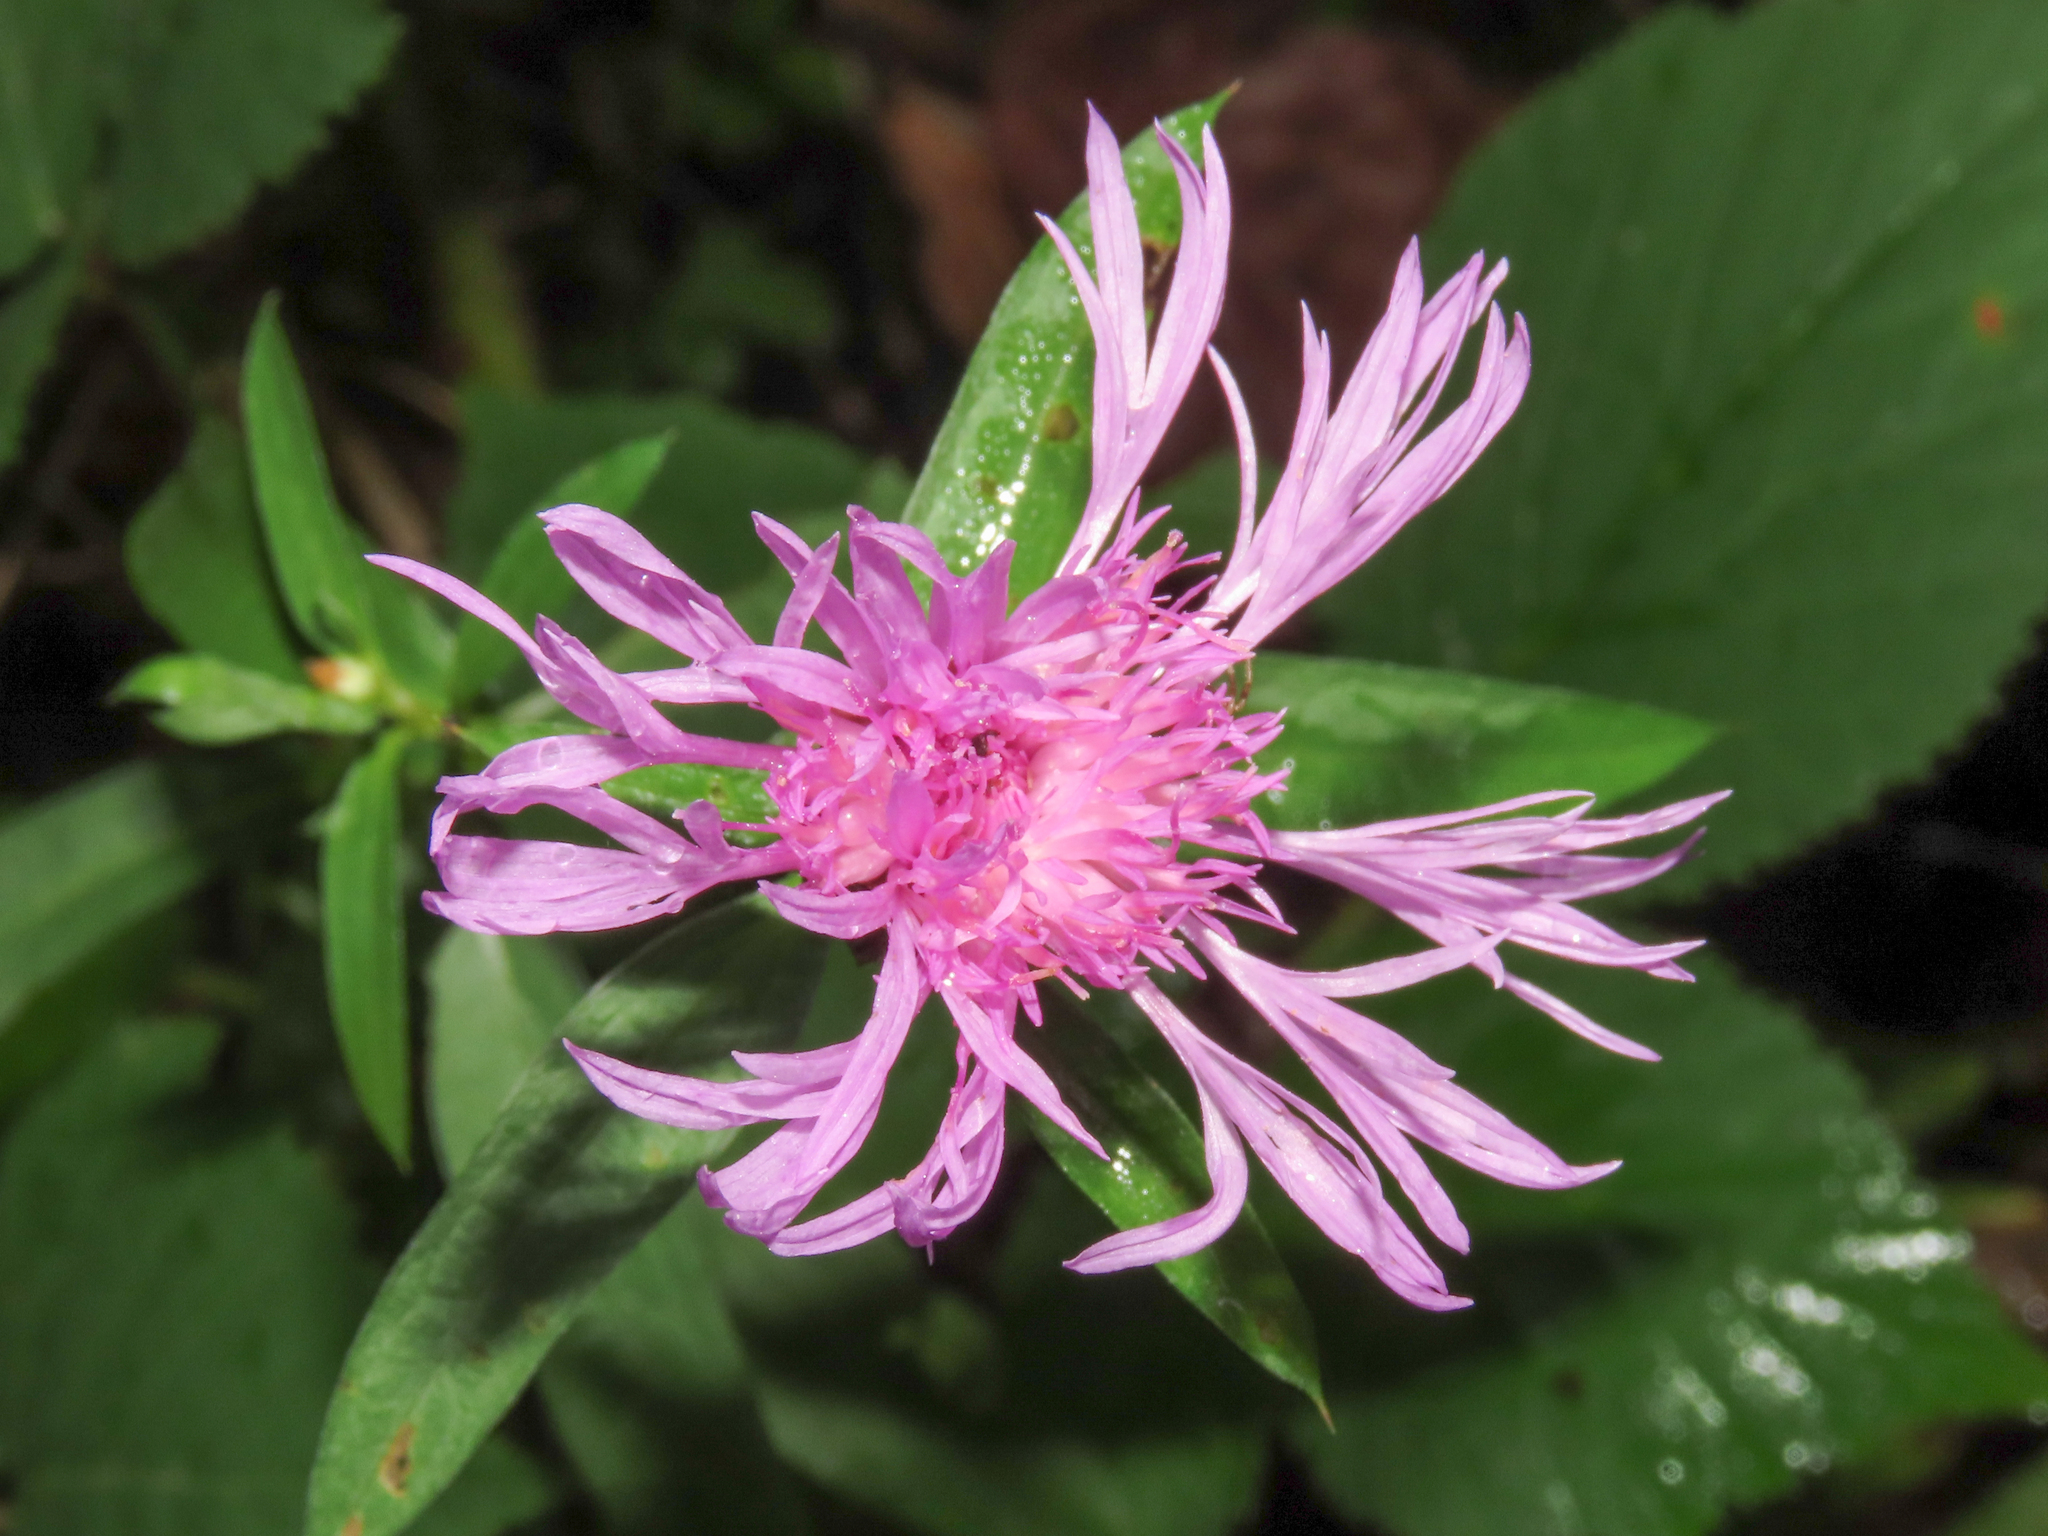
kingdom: Plantae
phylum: Tracheophyta
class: Magnoliopsida
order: Asterales
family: Asteraceae
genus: Centaurea
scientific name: Centaurea nigrescens
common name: Tyrol knapweed
